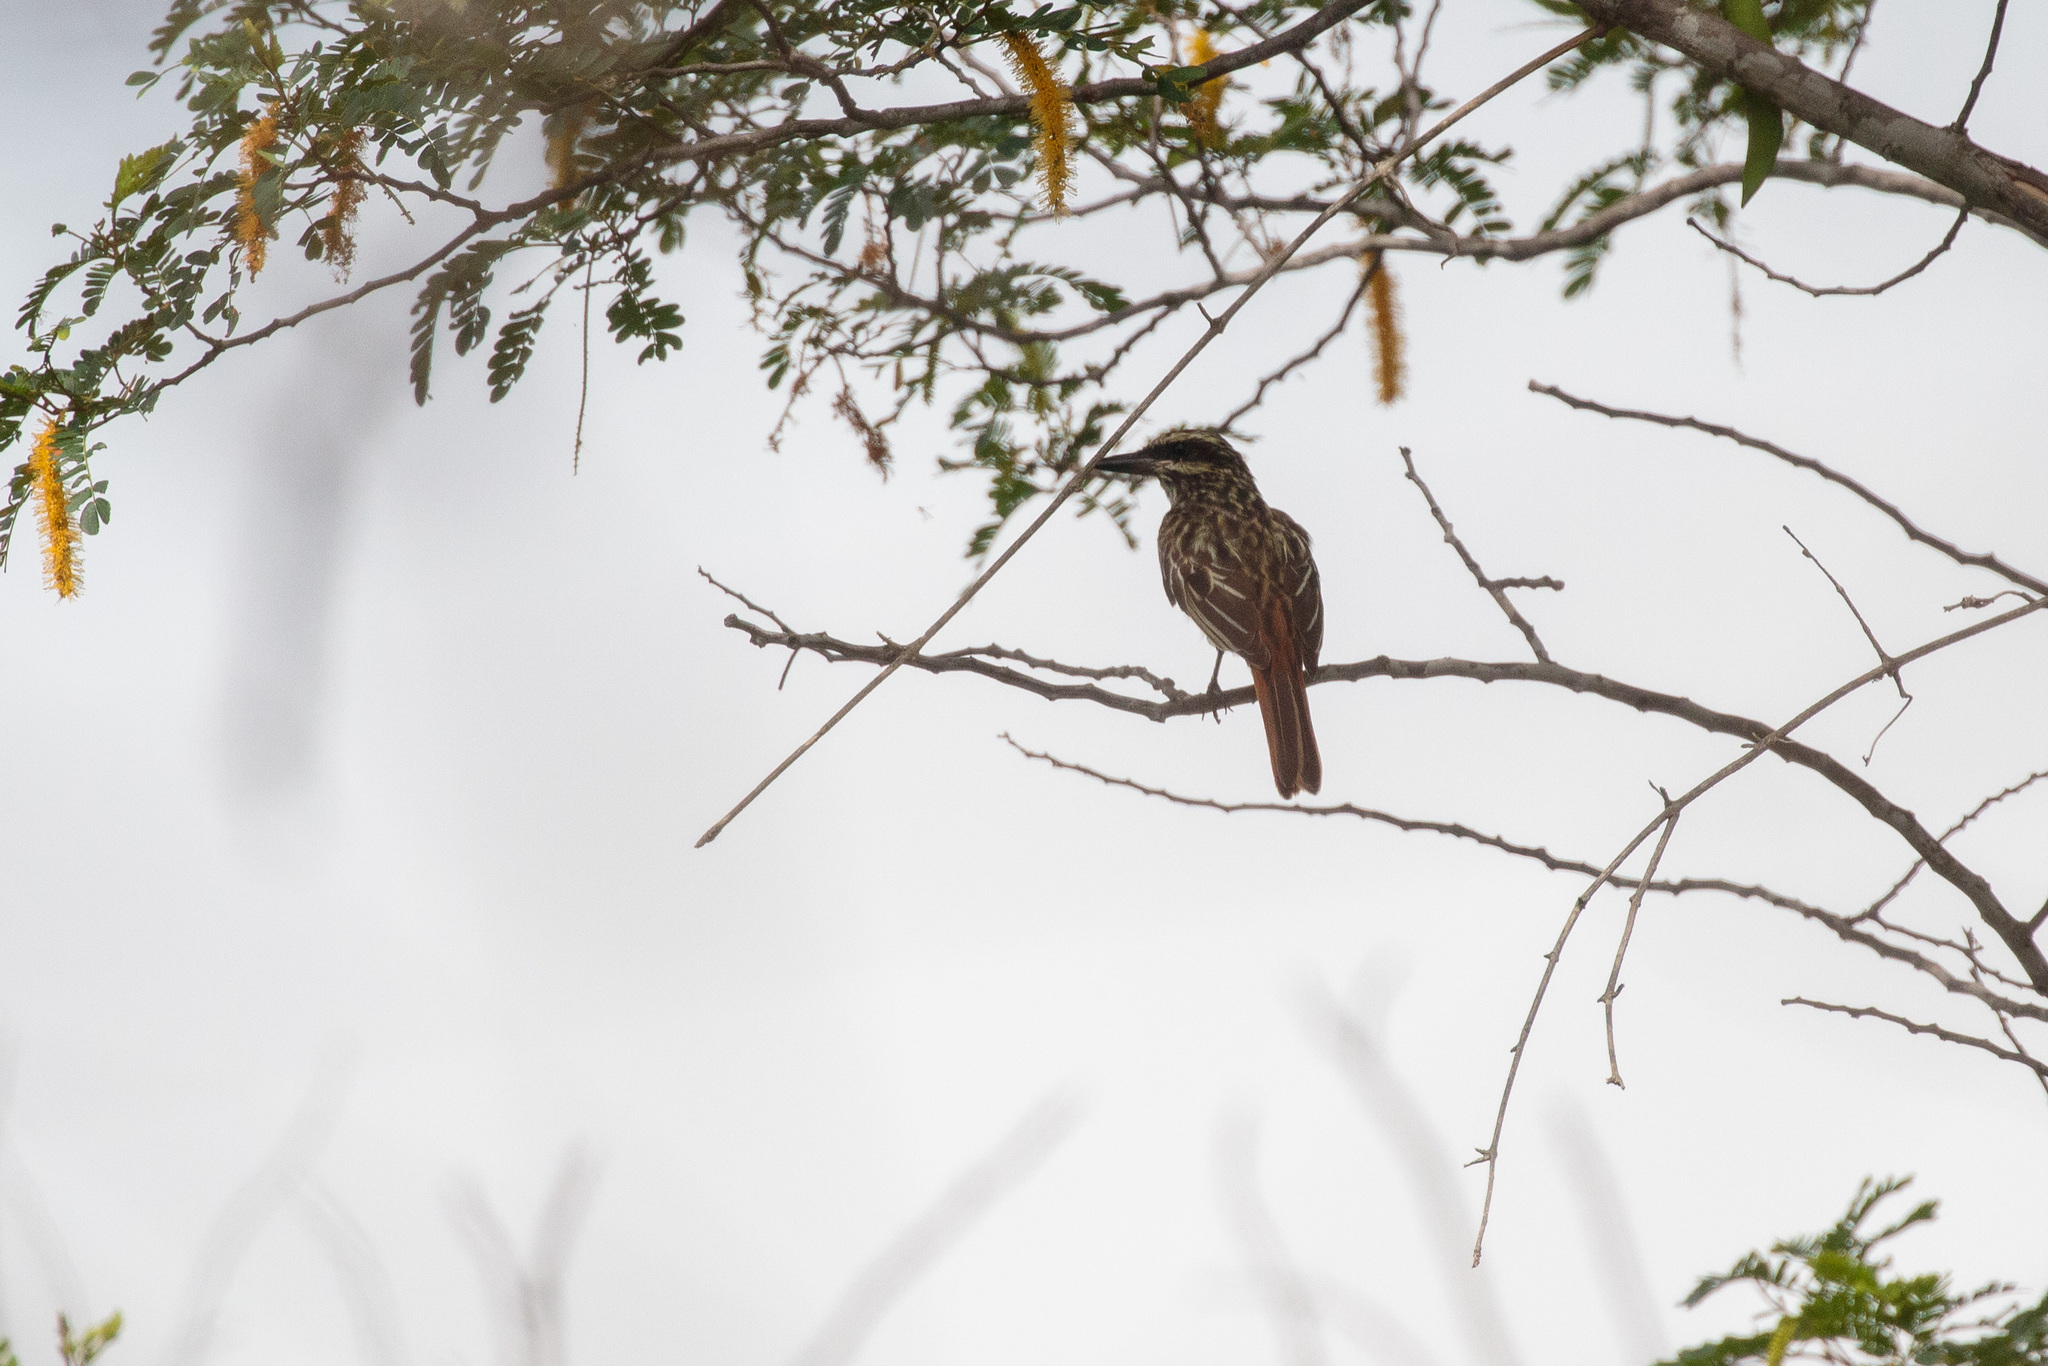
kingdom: Animalia
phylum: Chordata
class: Aves
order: Passeriformes
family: Tyrannidae
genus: Myiodynastes
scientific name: Myiodynastes maculatus
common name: Streaked flycatcher
